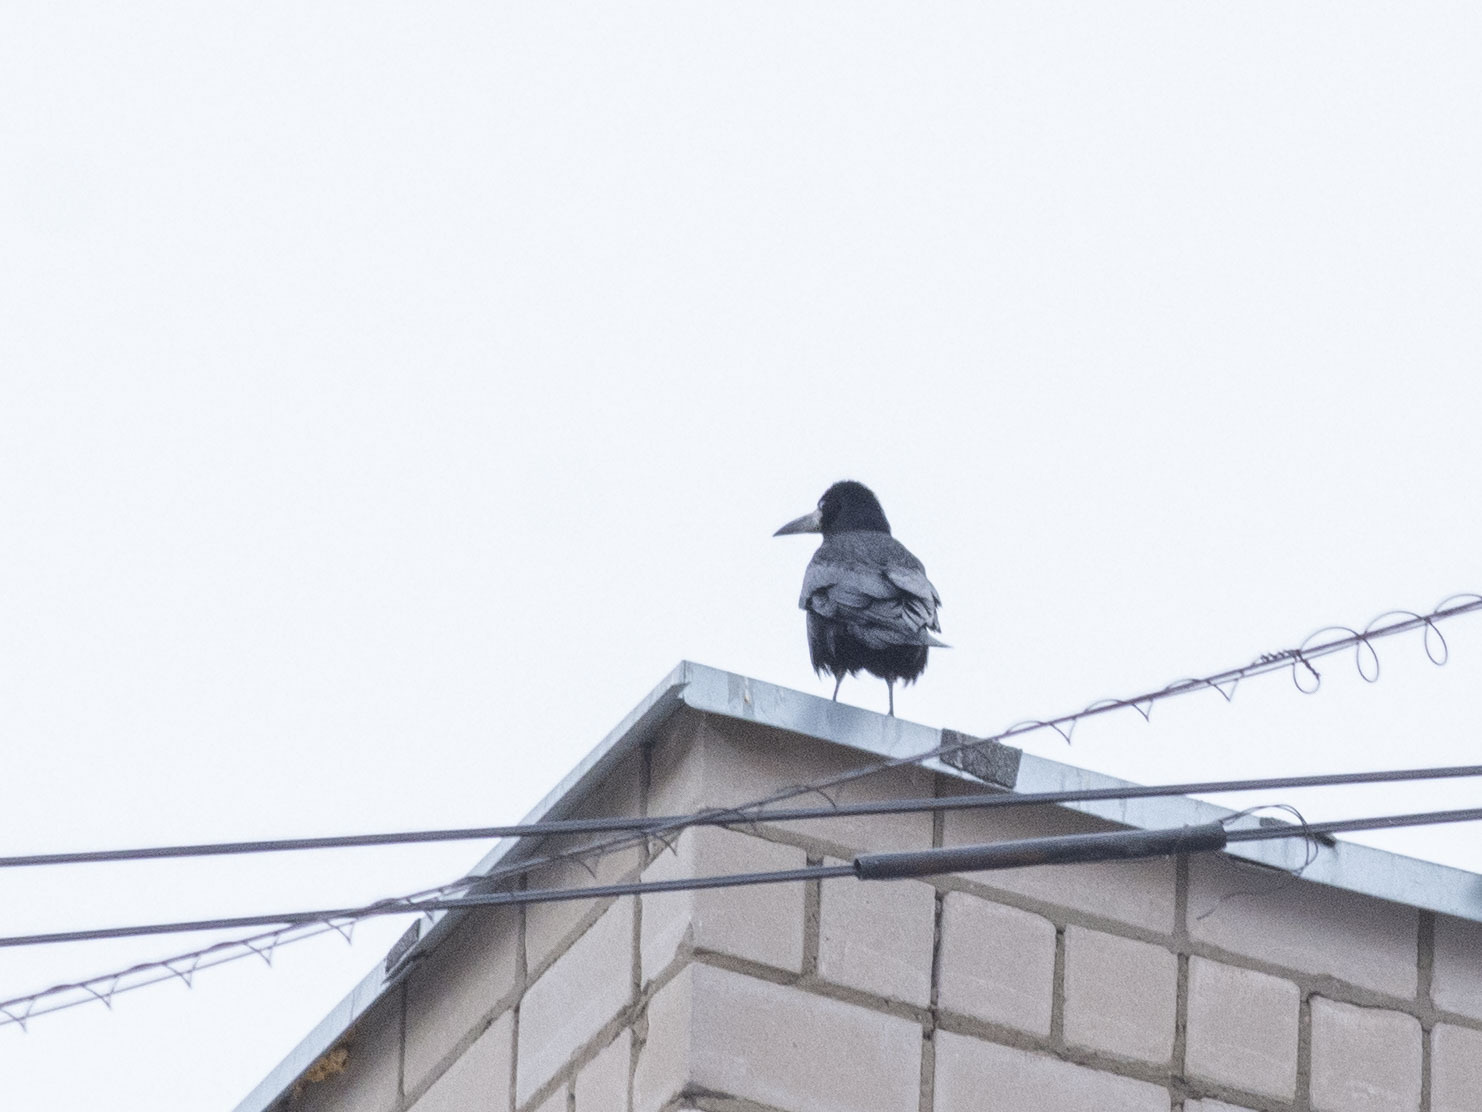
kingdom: Animalia
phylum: Chordata
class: Aves
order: Passeriformes
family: Corvidae
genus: Corvus
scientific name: Corvus frugilegus
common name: Rook
